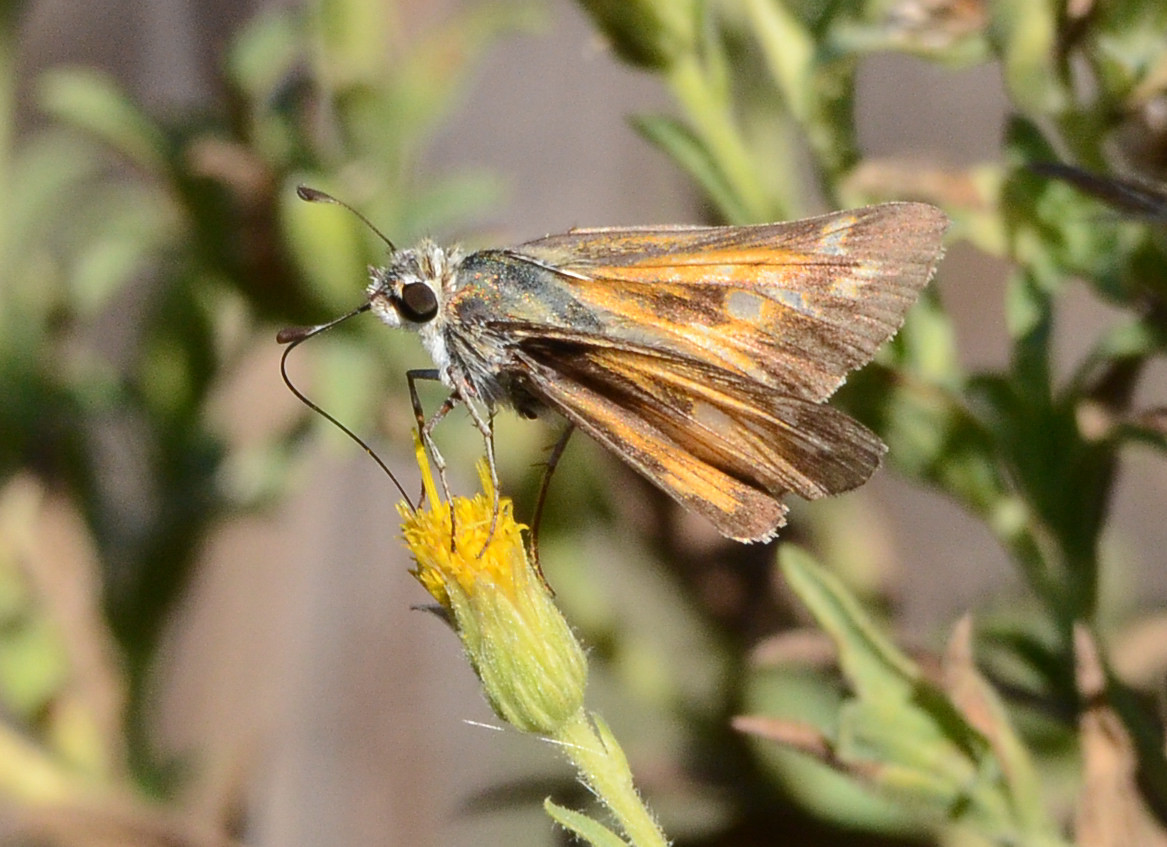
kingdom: Animalia
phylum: Arthropoda
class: Insecta
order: Lepidoptera
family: Hesperiidae
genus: Atalopedes
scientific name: Atalopedes campestris
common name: Sachem
